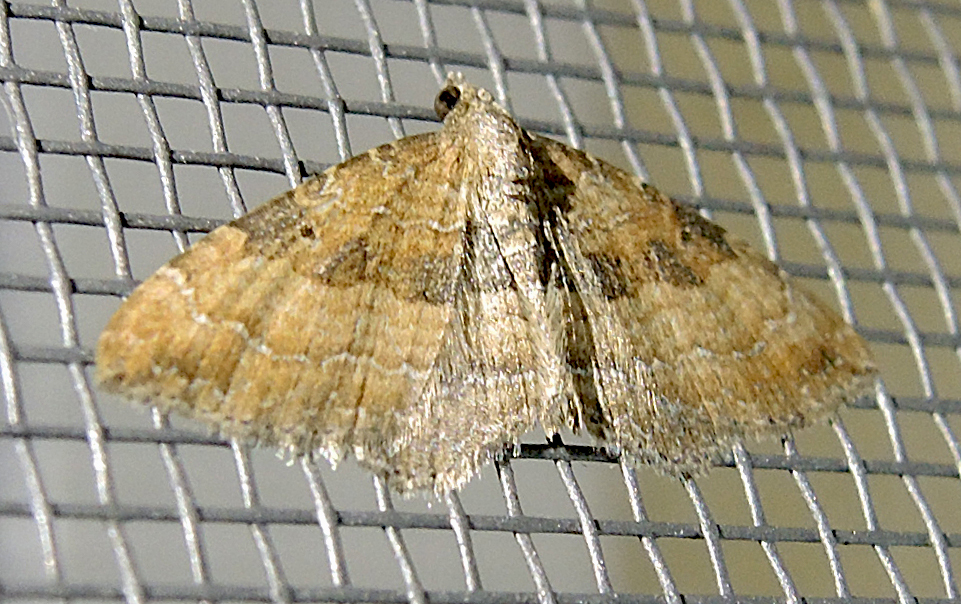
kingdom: Animalia
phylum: Arthropoda
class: Insecta
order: Lepidoptera
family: Geometridae
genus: Orthonama
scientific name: Orthonama obstipata
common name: The gem
